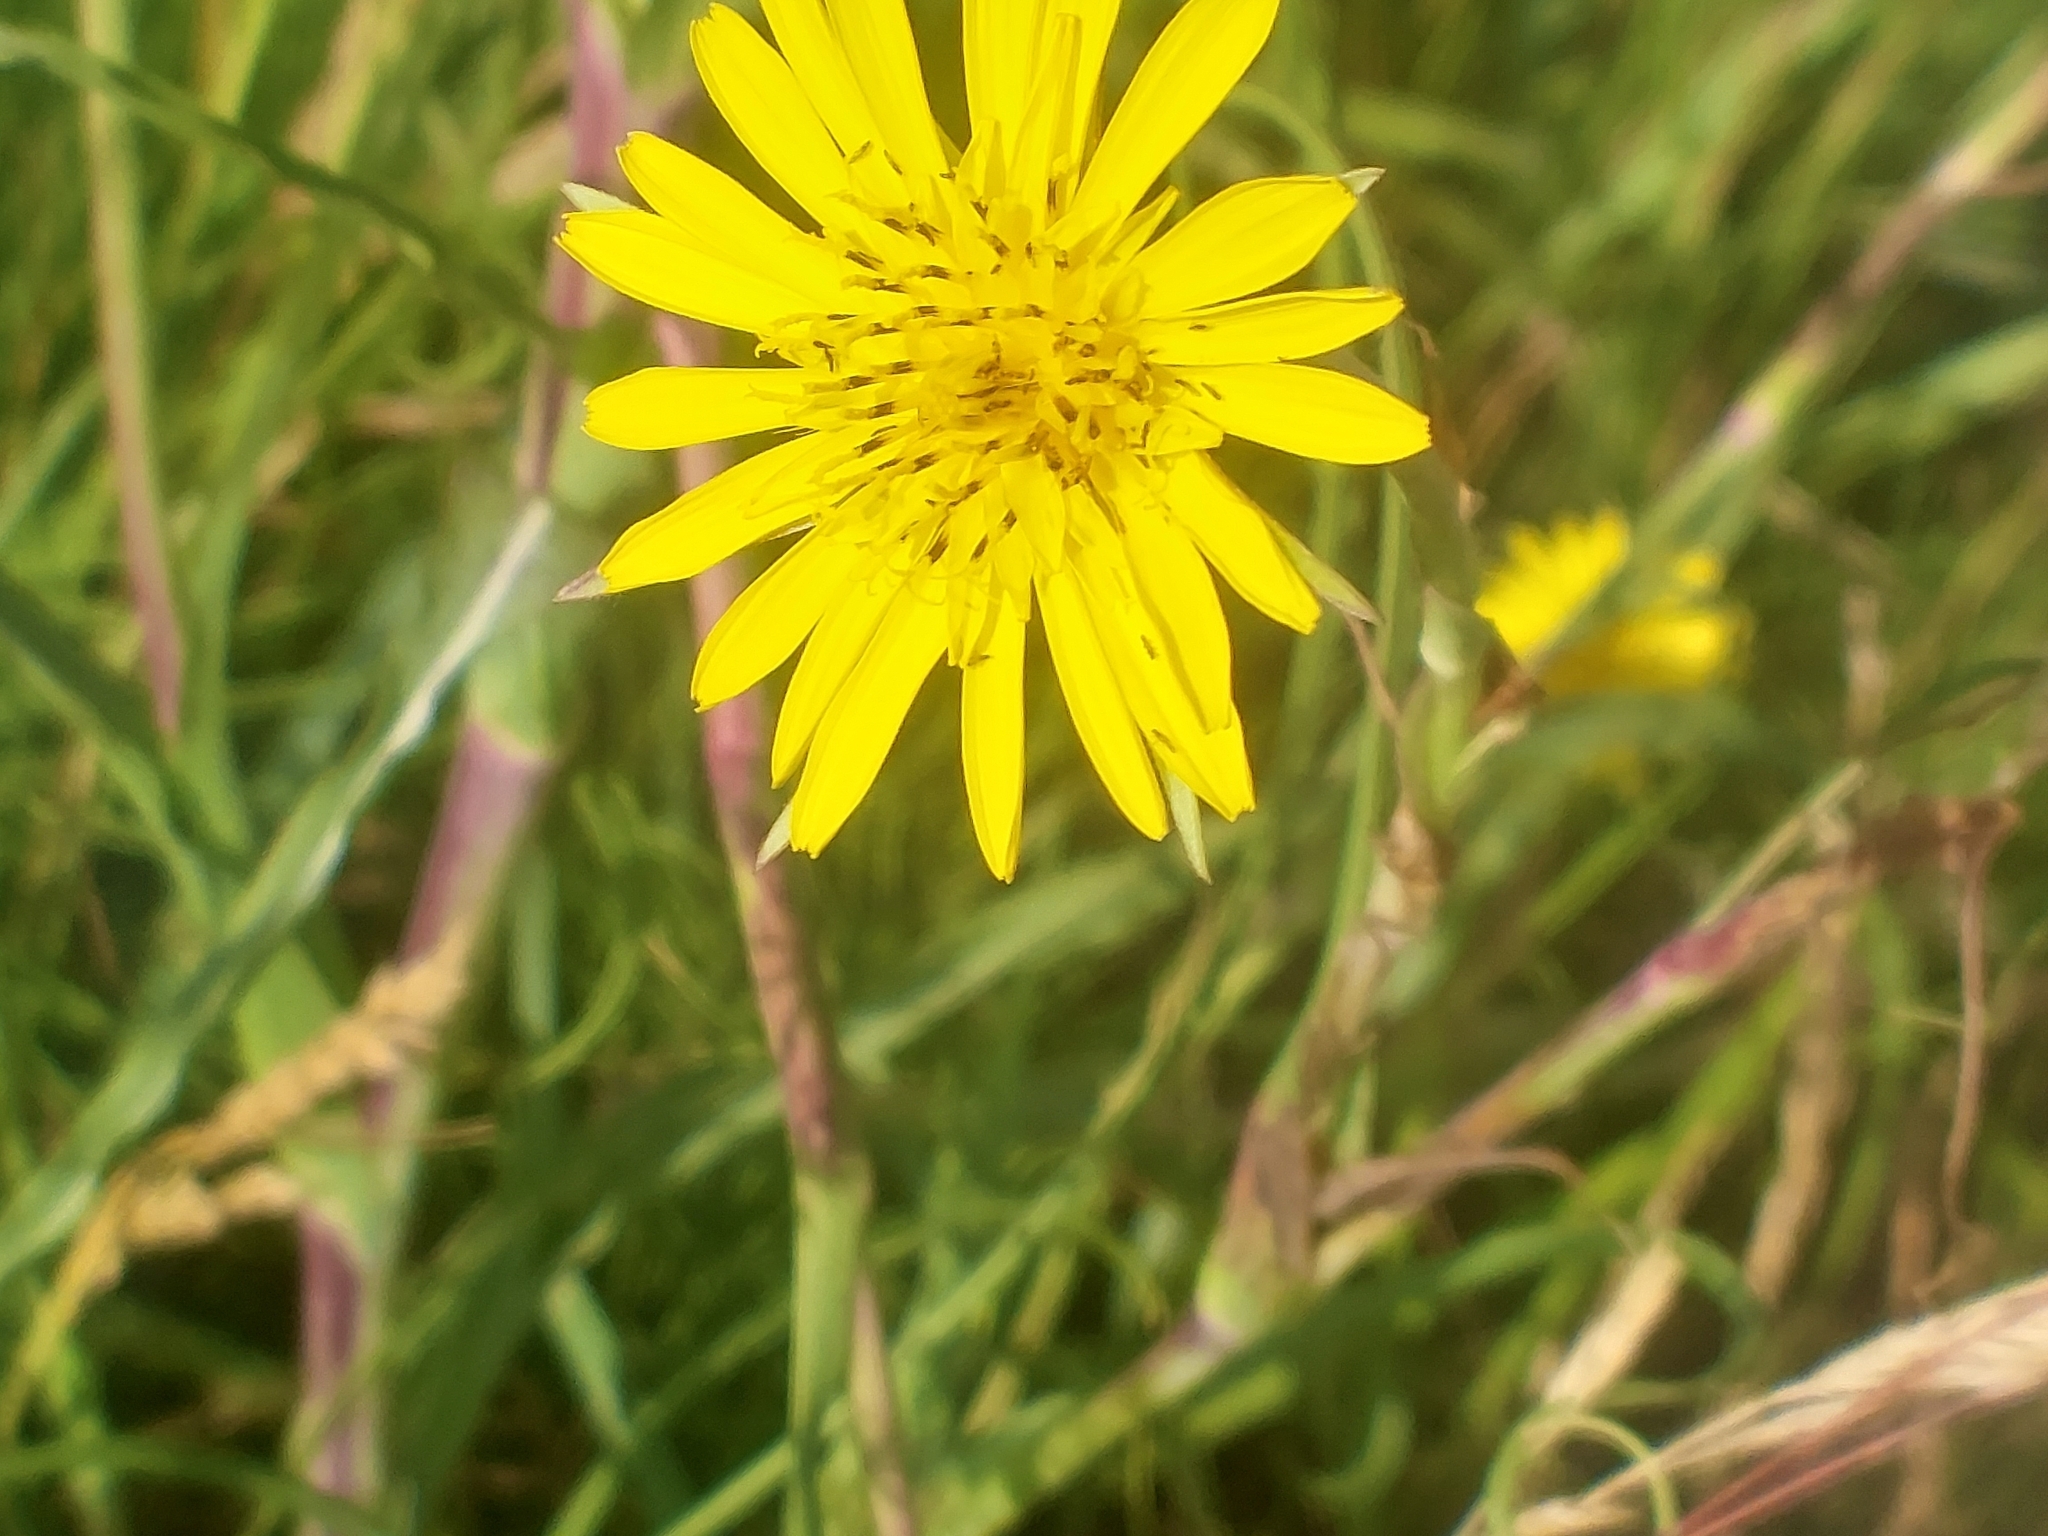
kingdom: Plantae
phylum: Tracheophyta
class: Magnoliopsida
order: Asterales
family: Asteraceae
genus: Tragopogon
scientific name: Tragopogon pratensis
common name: Goat's-beard
